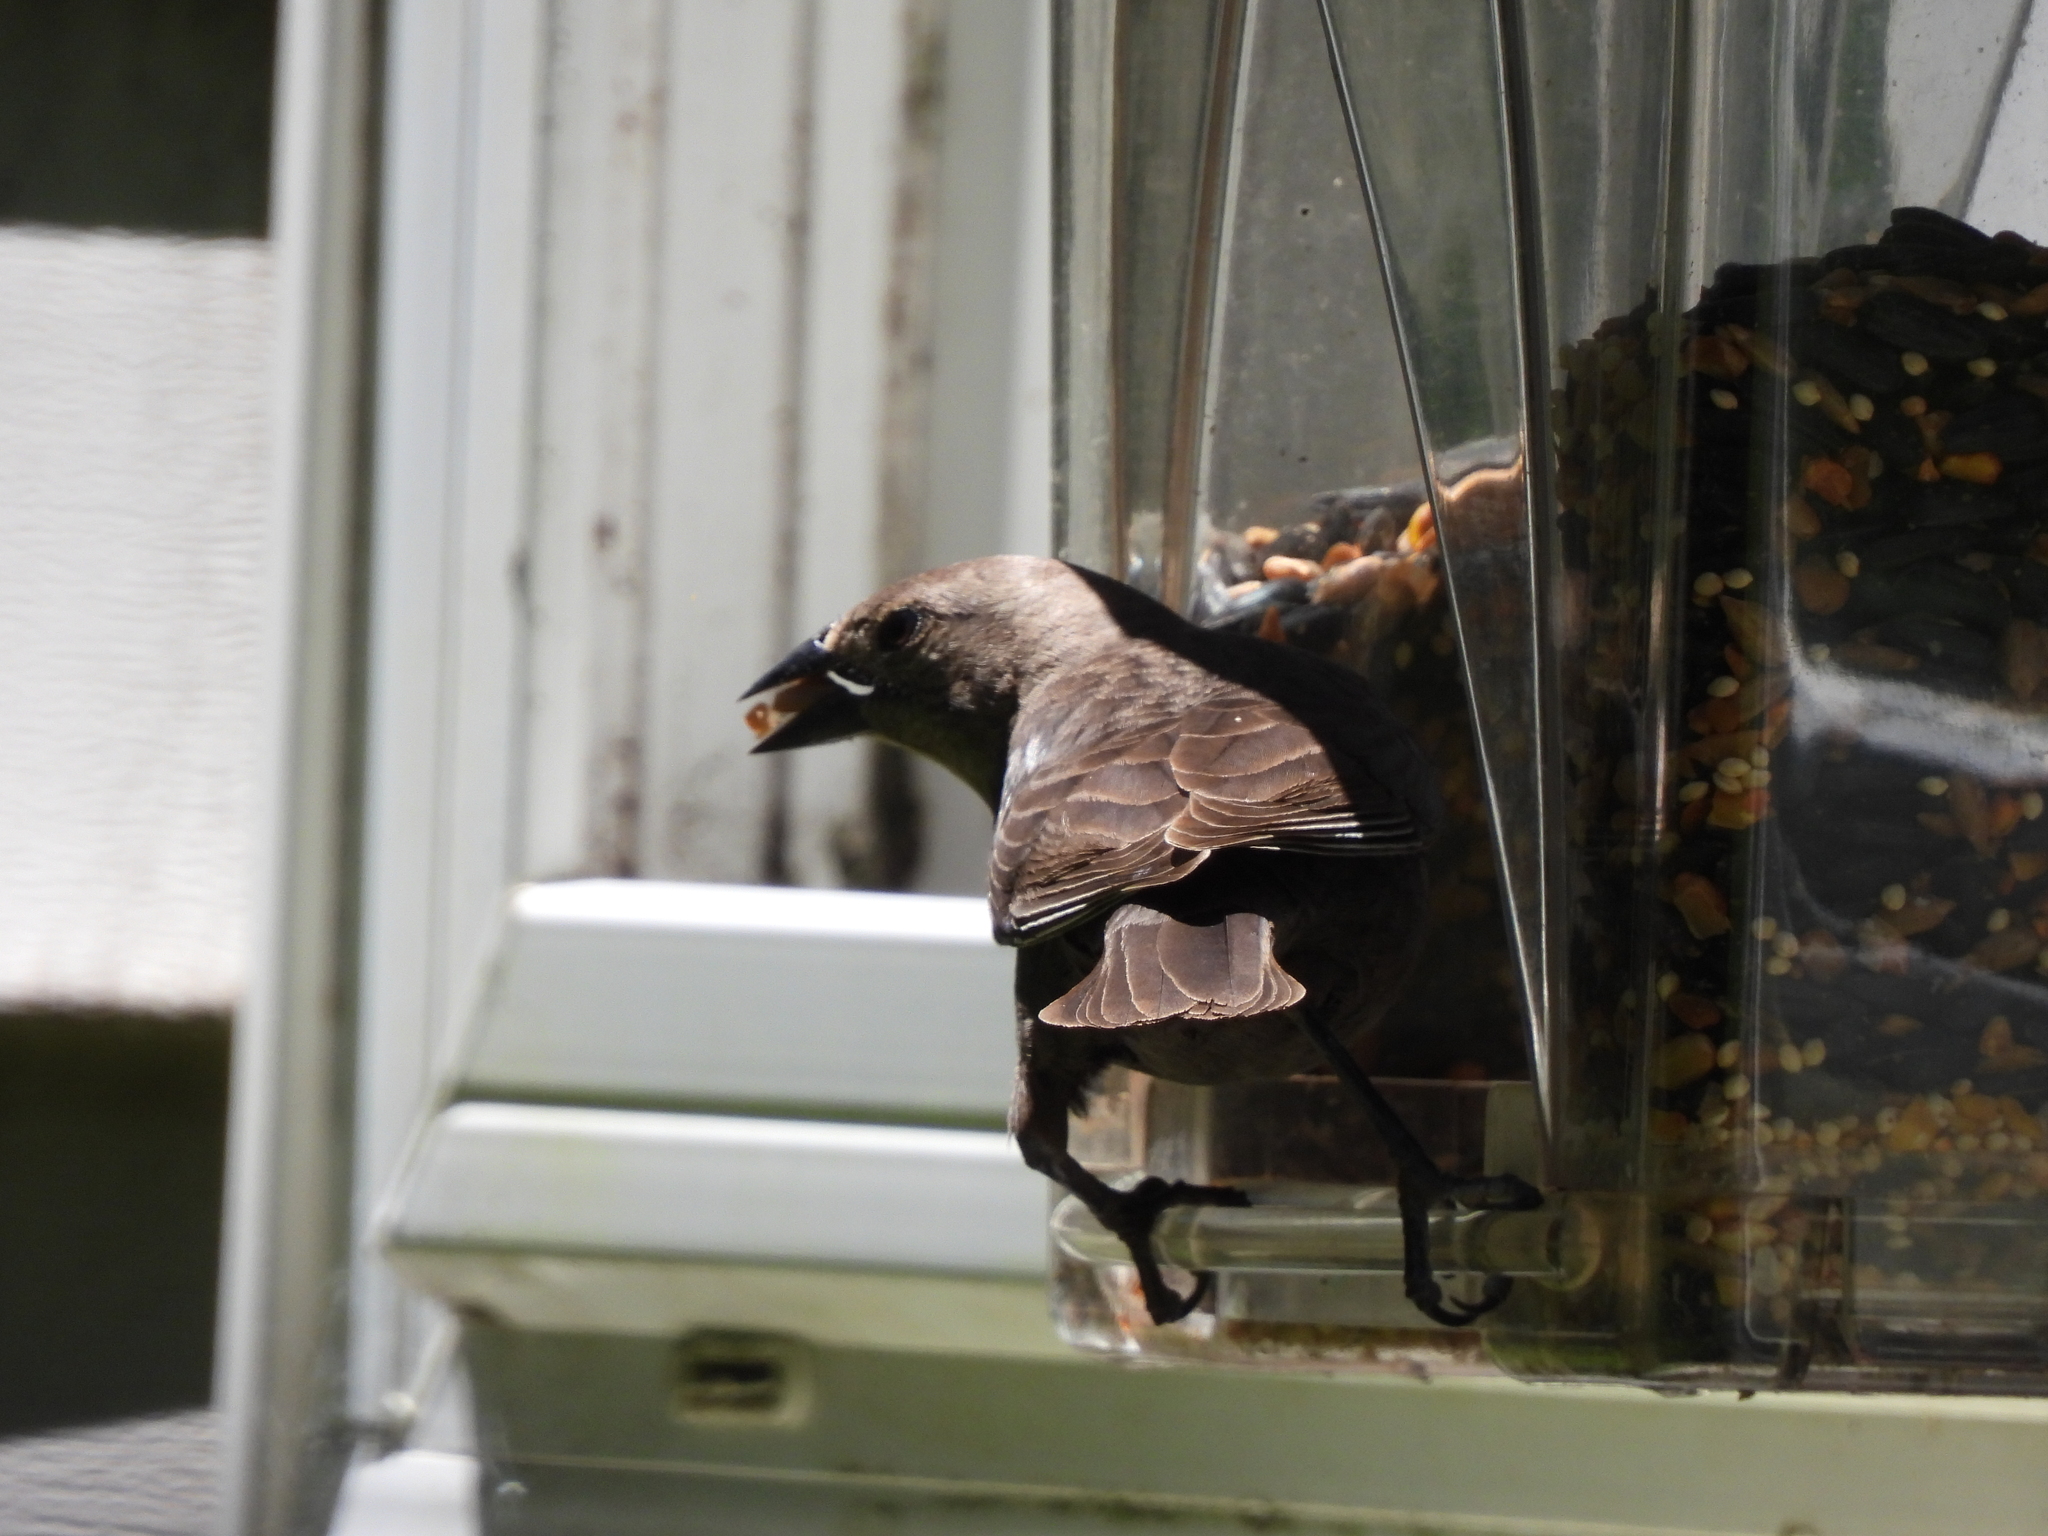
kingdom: Animalia
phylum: Chordata
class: Aves
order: Passeriformes
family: Icteridae
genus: Molothrus
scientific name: Molothrus ater
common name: Brown-headed cowbird
